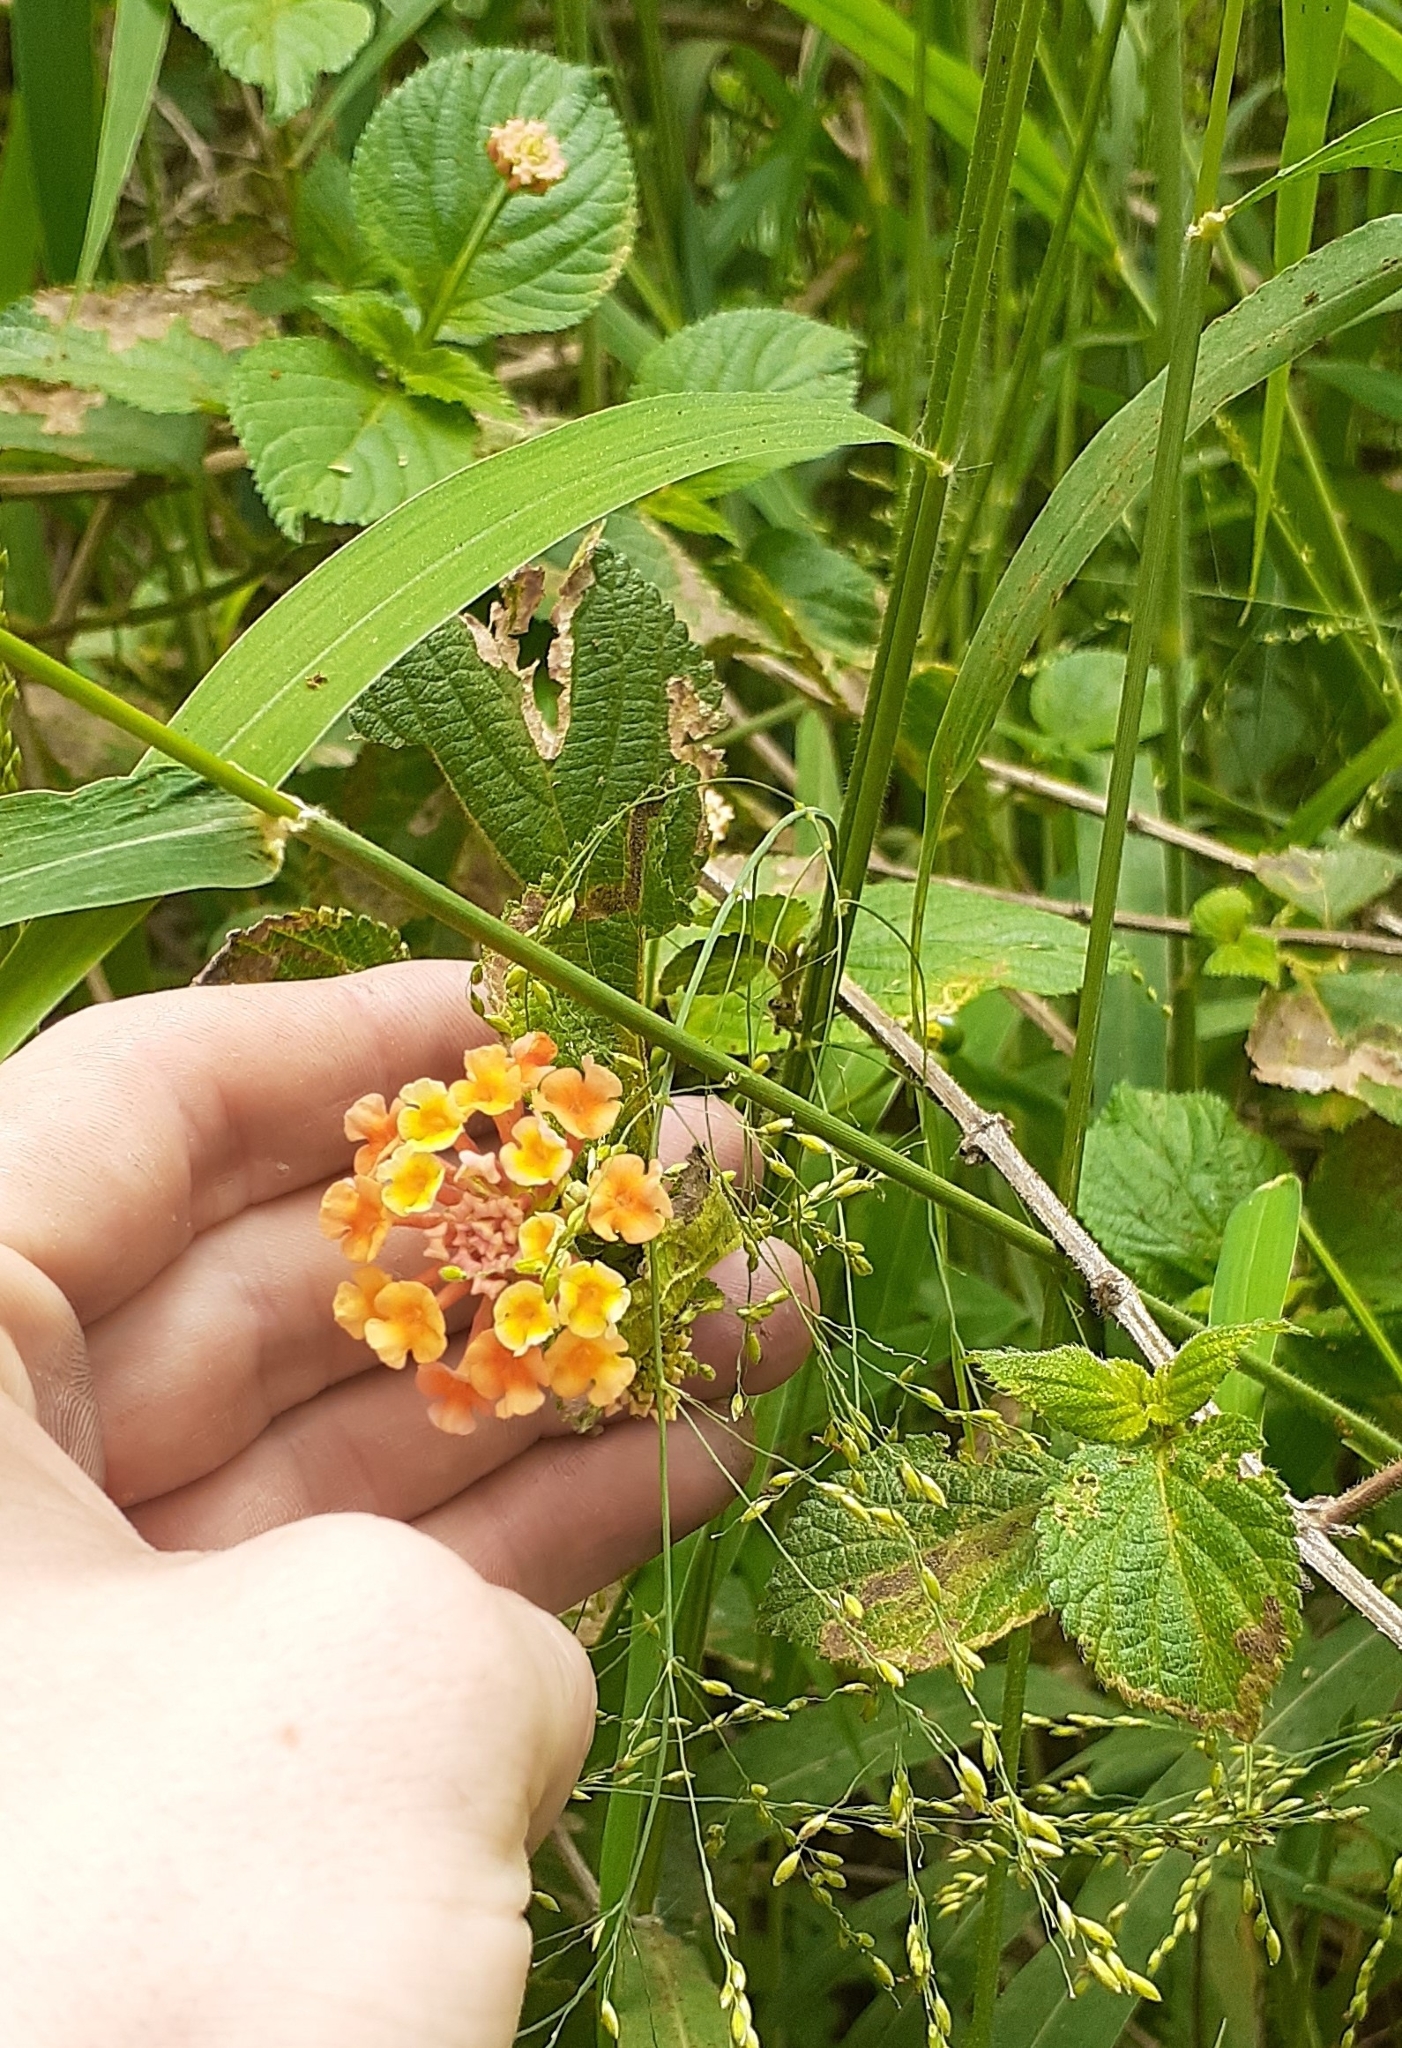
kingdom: Plantae
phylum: Tracheophyta
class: Magnoliopsida
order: Lamiales
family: Verbenaceae
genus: Lantana
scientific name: Lantana camara
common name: Lantana
